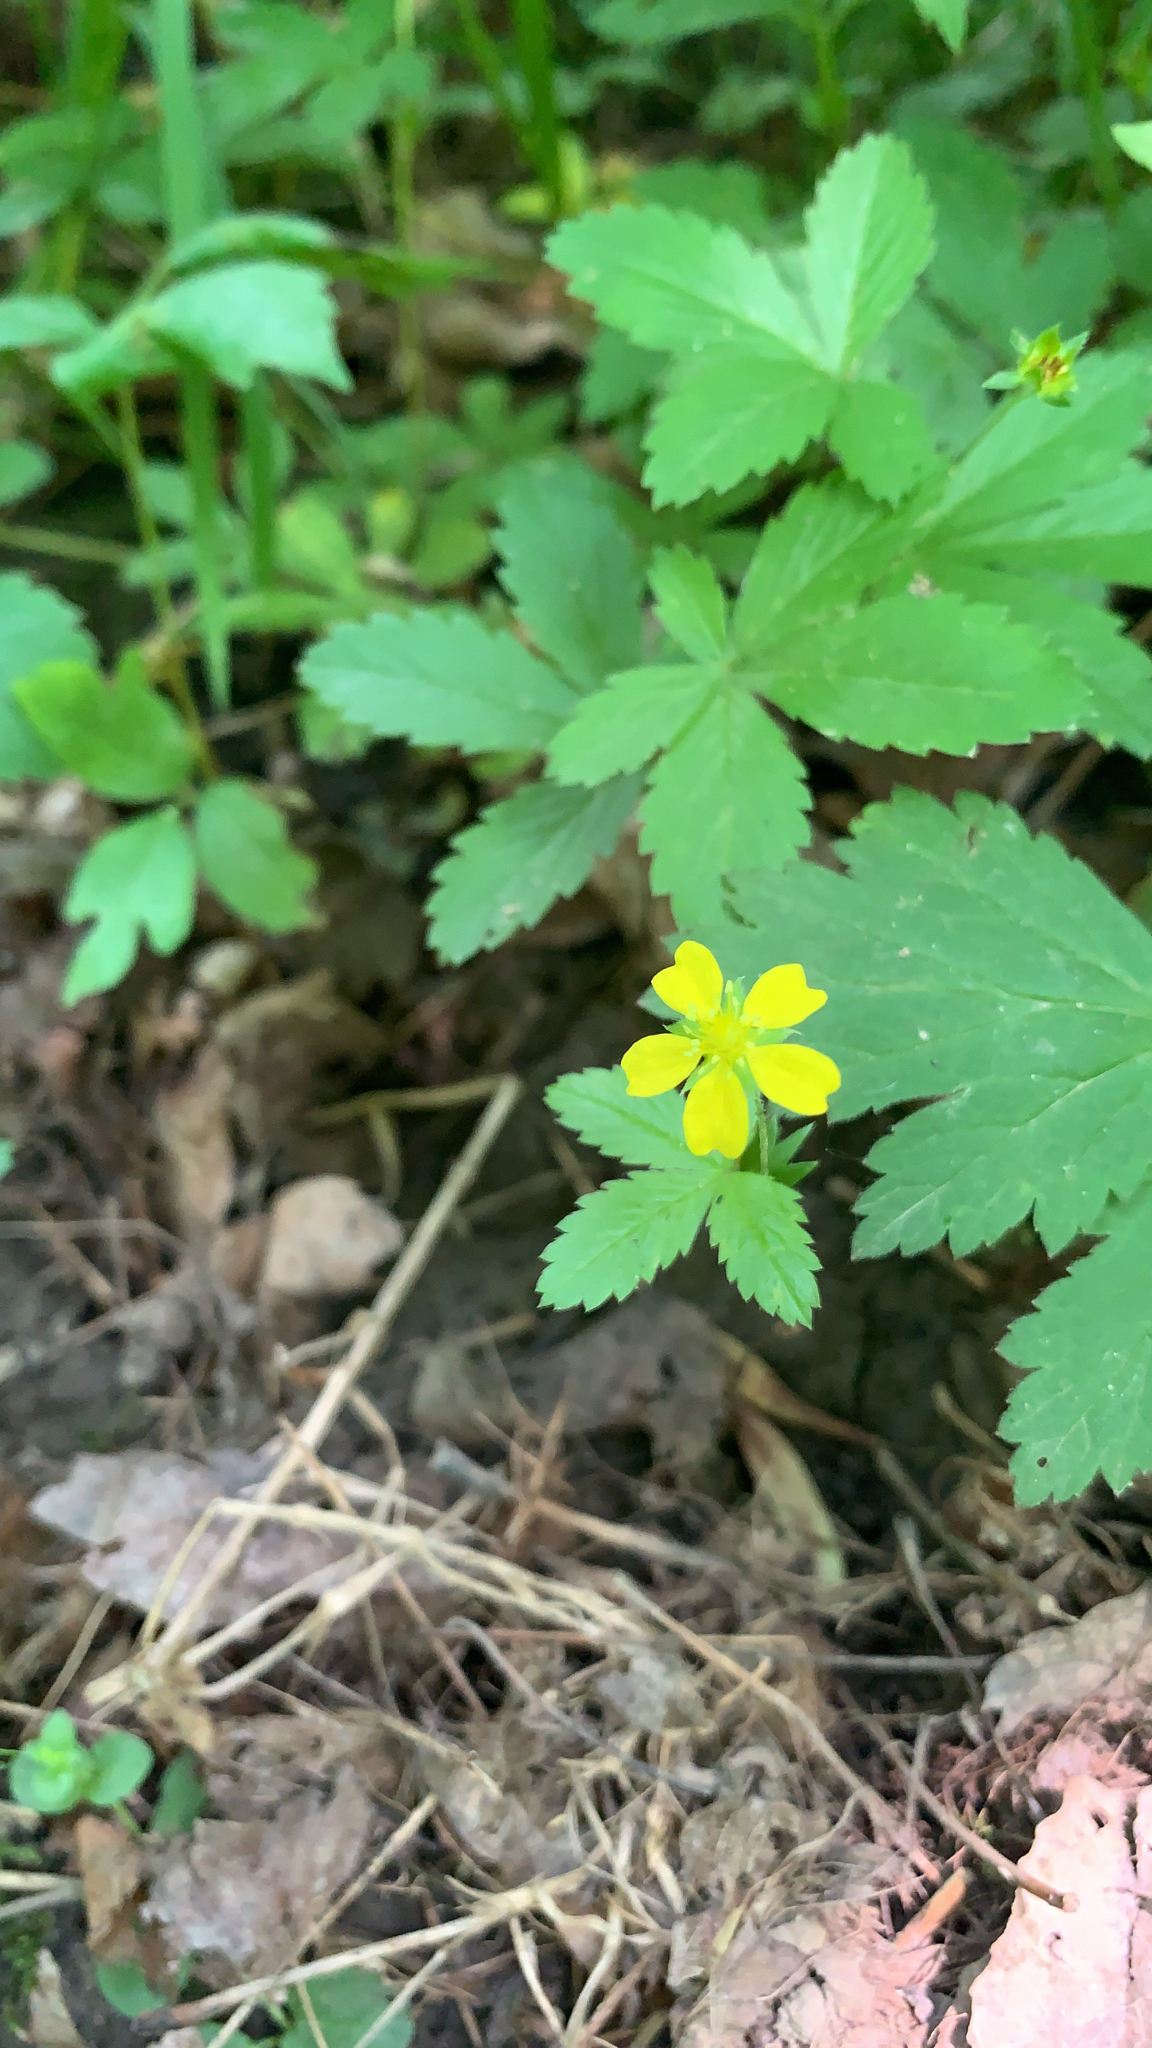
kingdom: Plantae
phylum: Tracheophyta
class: Magnoliopsida
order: Rosales
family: Rosaceae
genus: Potentilla
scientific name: Potentilla simplex
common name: Old field cinquefoil
